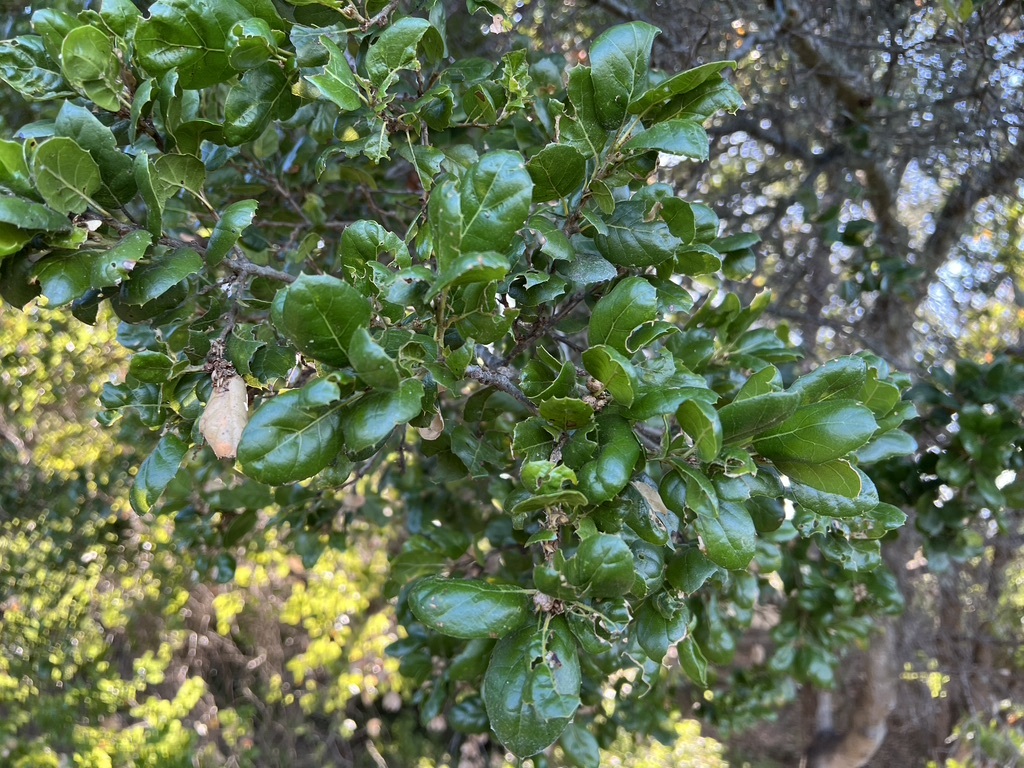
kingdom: Plantae
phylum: Tracheophyta
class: Magnoliopsida
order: Fagales
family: Fagaceae
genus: Quercus
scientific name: Quercus agrifolia
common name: California live oak
